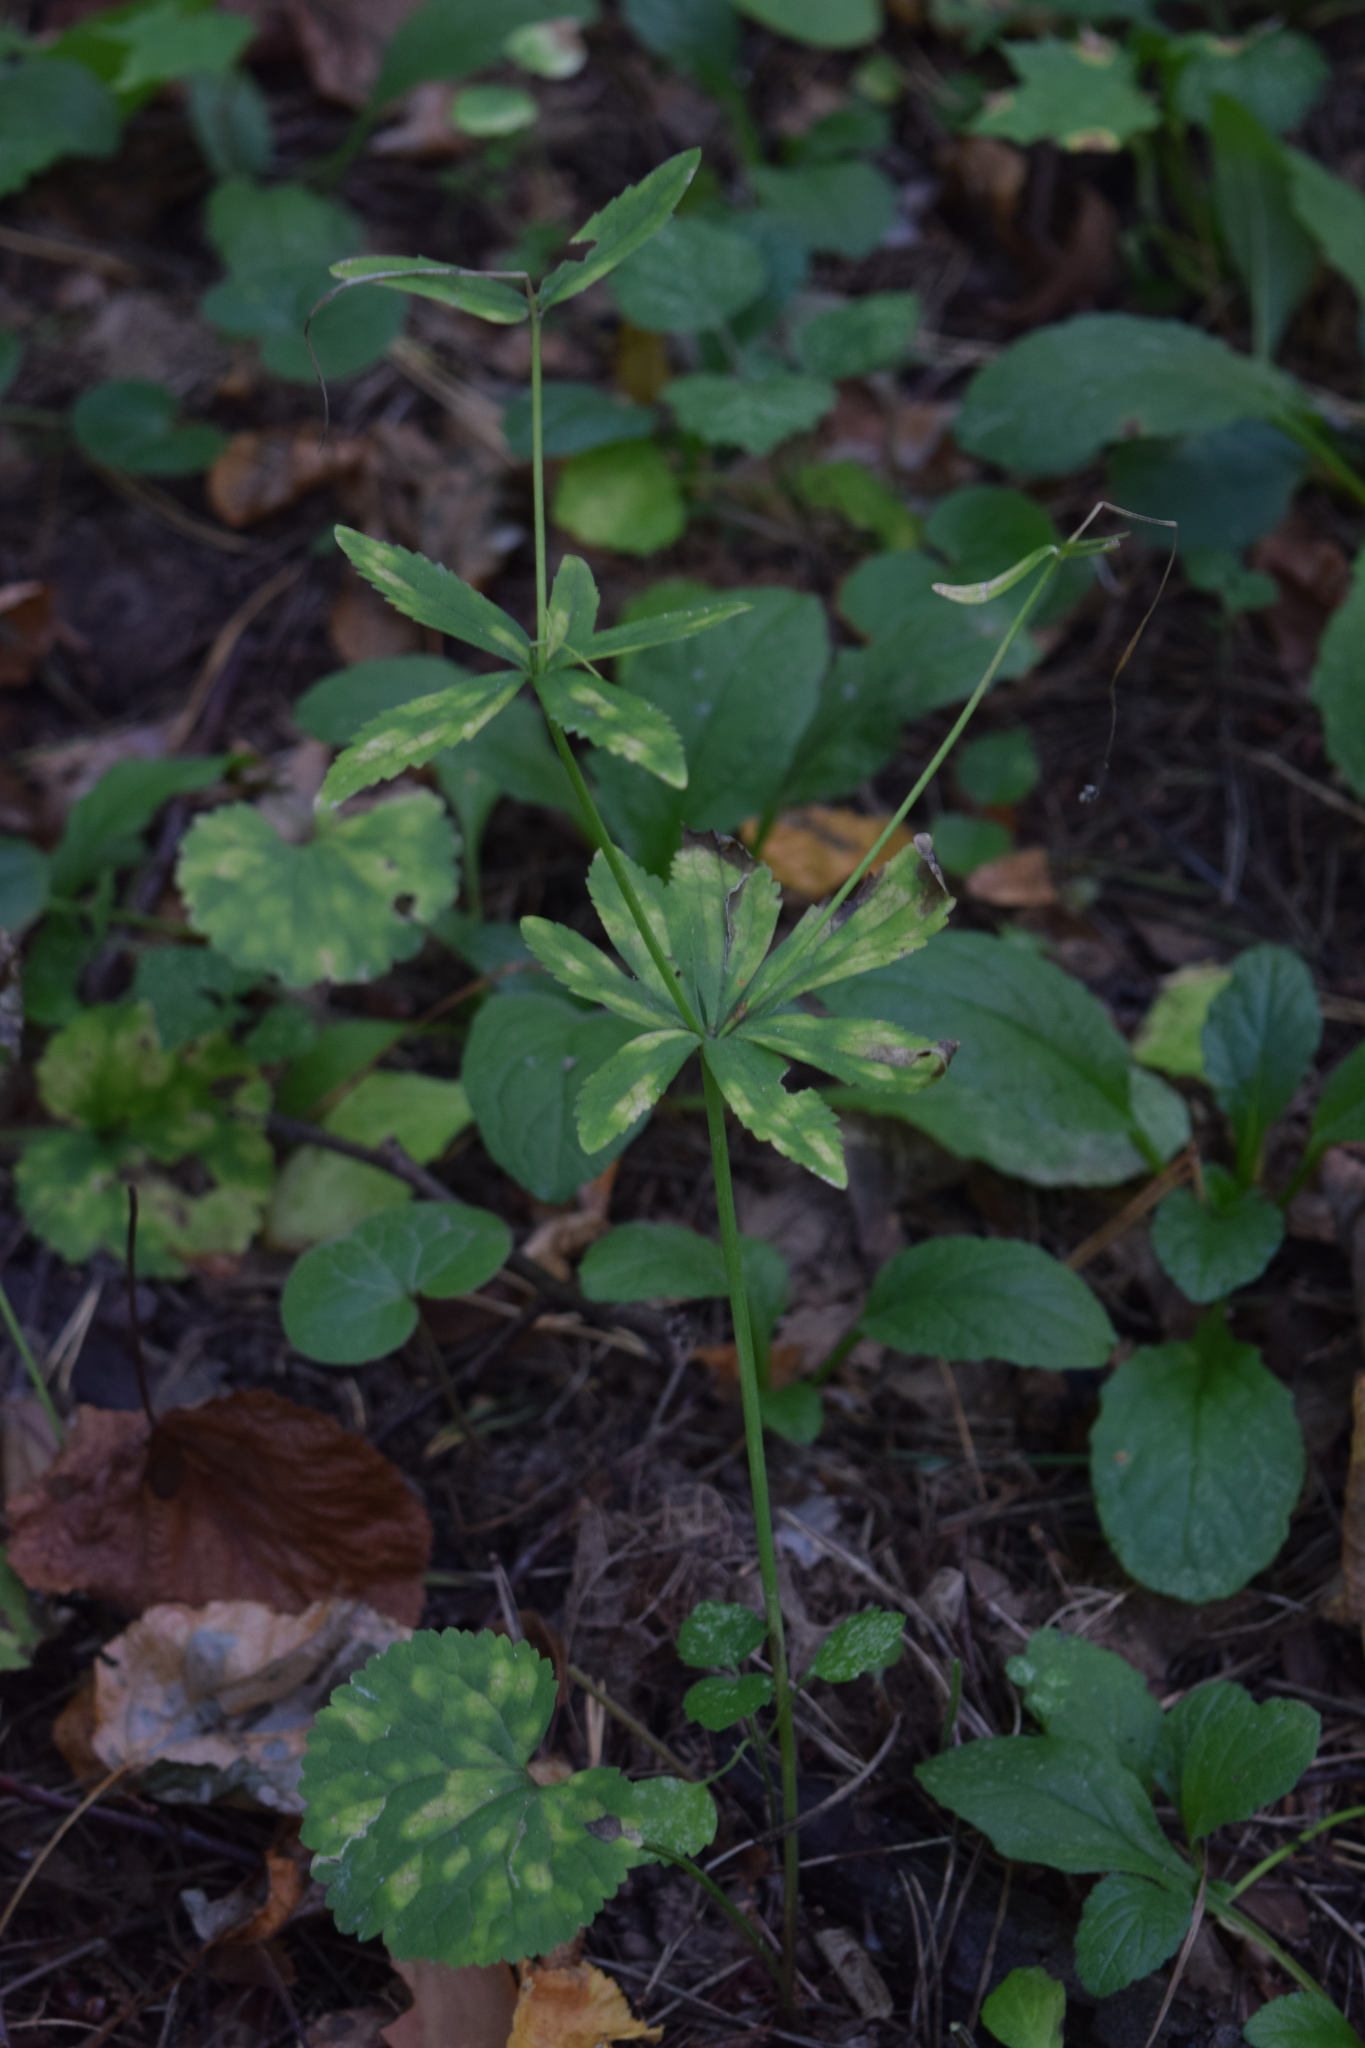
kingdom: Plantae
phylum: Tracheophyta
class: Magnoliopsida
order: Ranunculales
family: Ranunculaceae
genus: Ranunculus
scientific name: Ranunculus cassubicus
